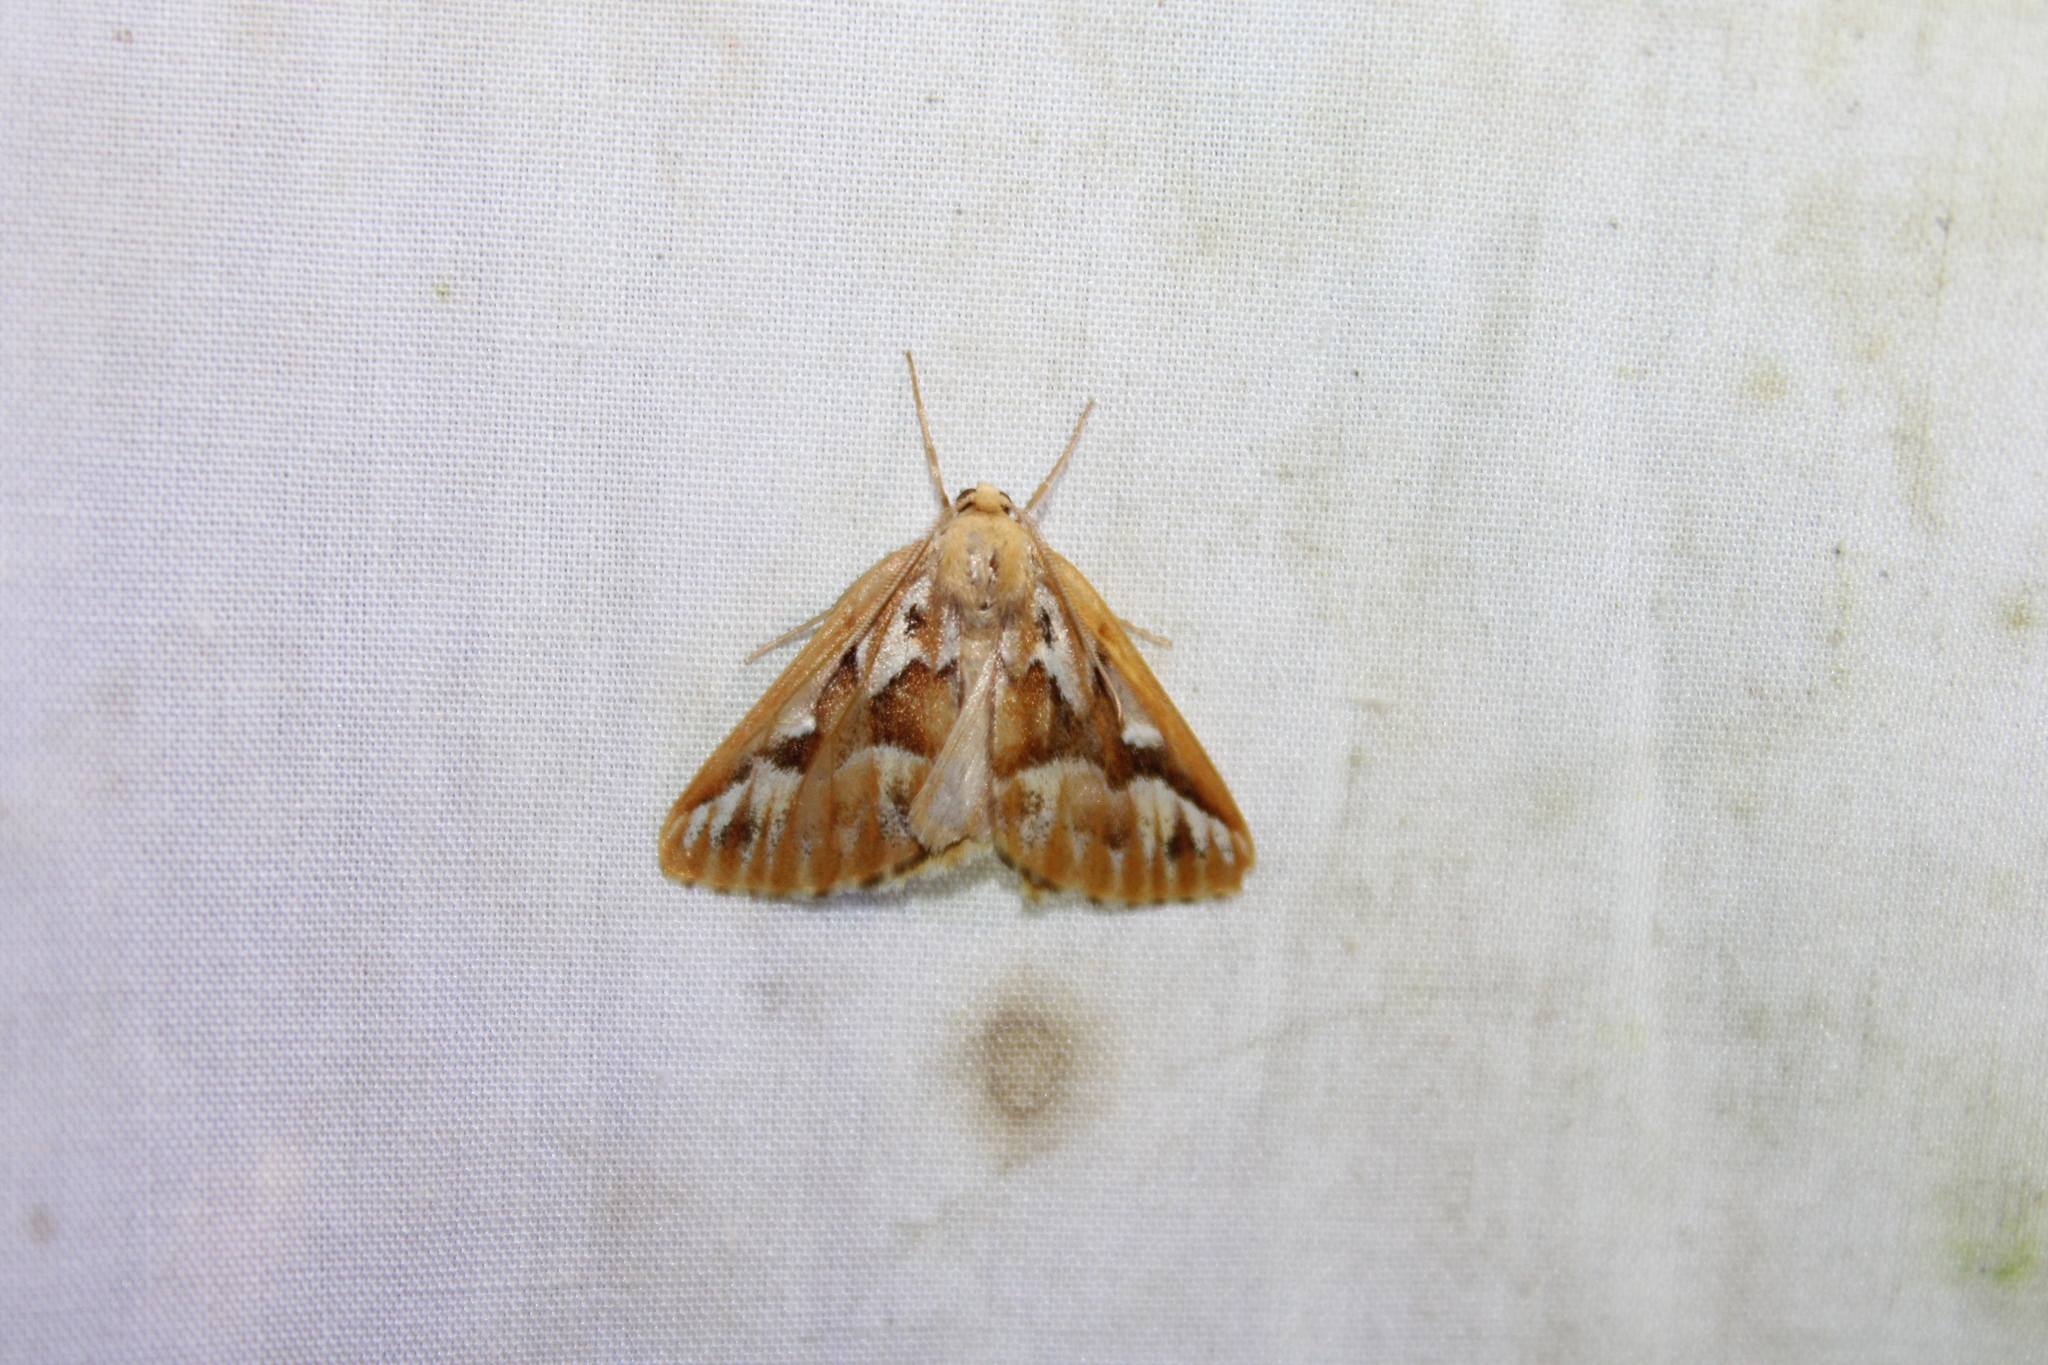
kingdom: Animalia
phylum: Arthropoda
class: Insecta
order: Lepidoptera
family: Geometridae
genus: Caripeta
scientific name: Caripeta piniata
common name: Northern pine looper moth
